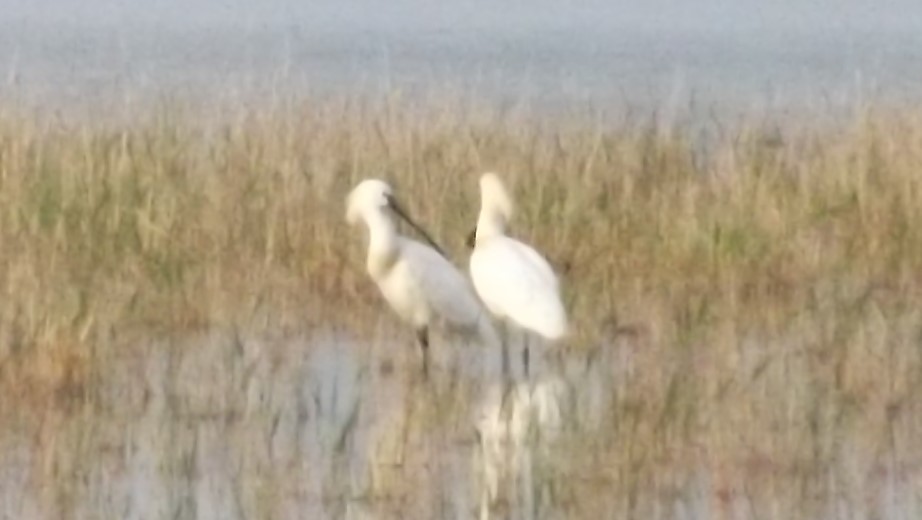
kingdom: Animalia
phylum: Chordata
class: Aves
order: Pelecaniformes
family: Threskiornithidae
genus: Platalea
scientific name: Platalea leucorodia
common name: Eurasian spoonbill
